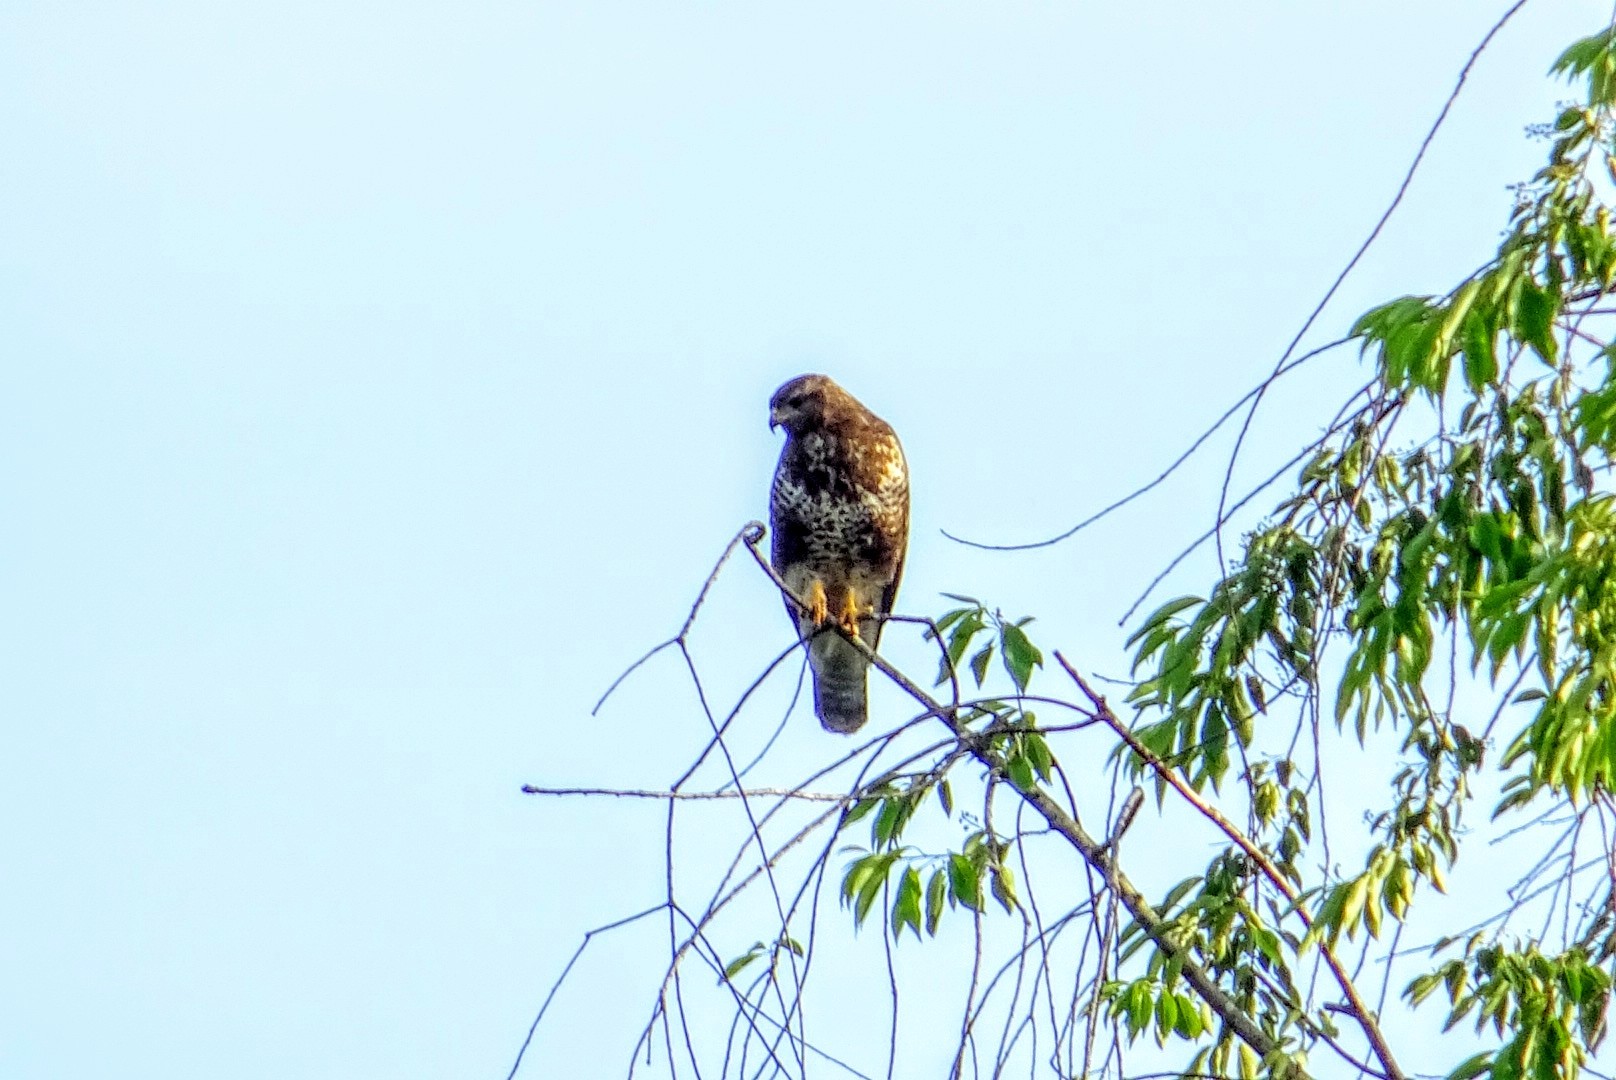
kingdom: Animalia
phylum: Chordata
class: Aves
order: Accipitriformes
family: Accipitridae
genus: Buteo
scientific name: Buteo buteo
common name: Common buzzard
